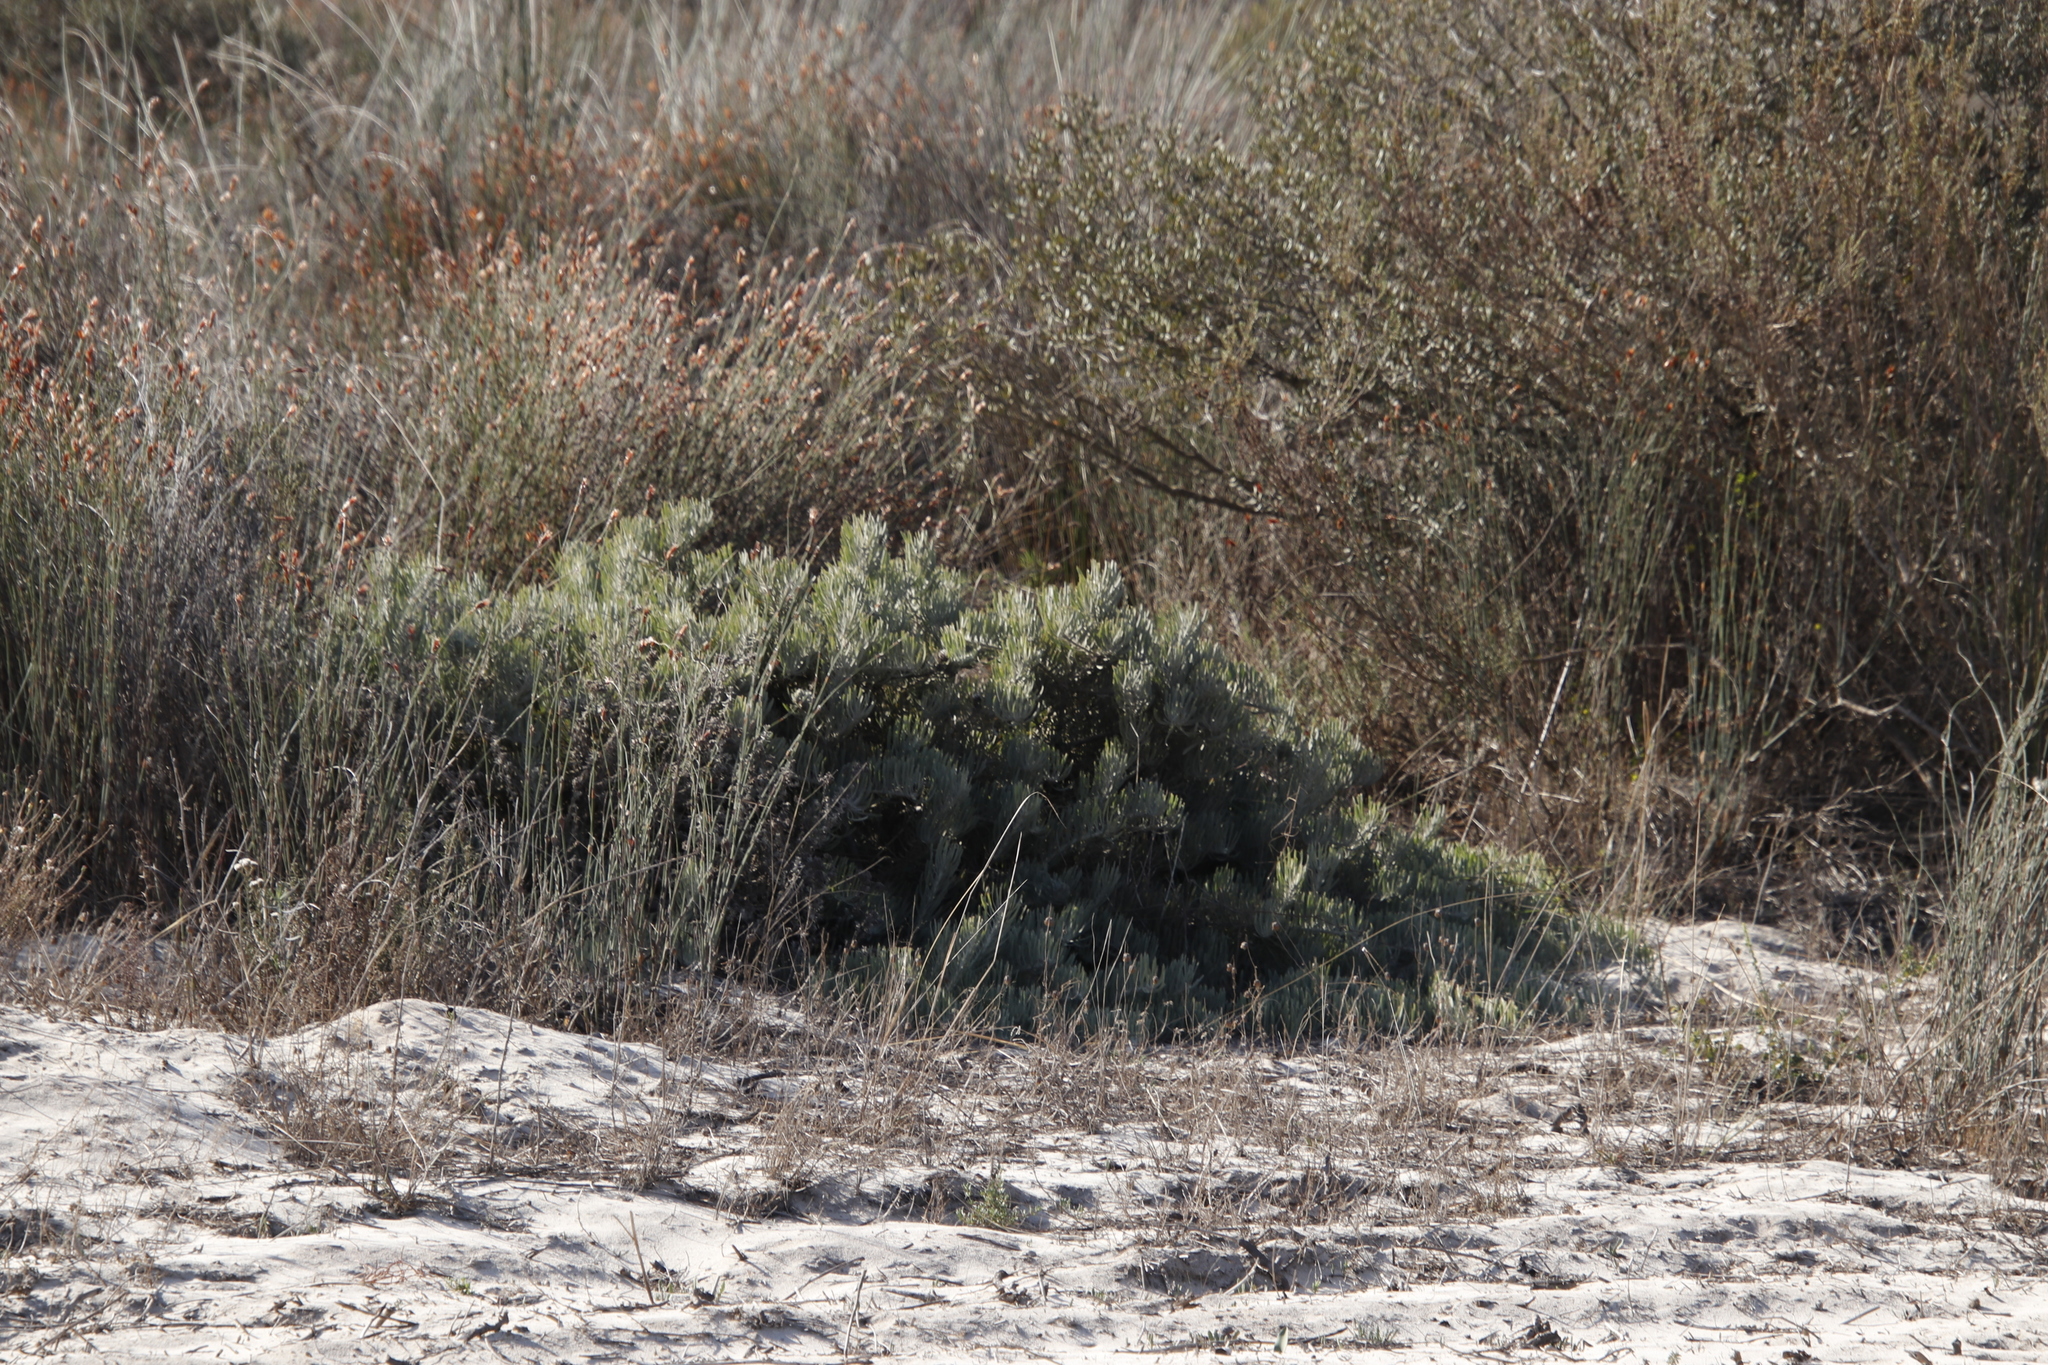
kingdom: Plantae
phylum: Tracheophyta
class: Magnoliopsida
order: Proteales
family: Proteaceae
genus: Leucospermum
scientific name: Leucospermum tomentosum
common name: Saldanha pincushion
